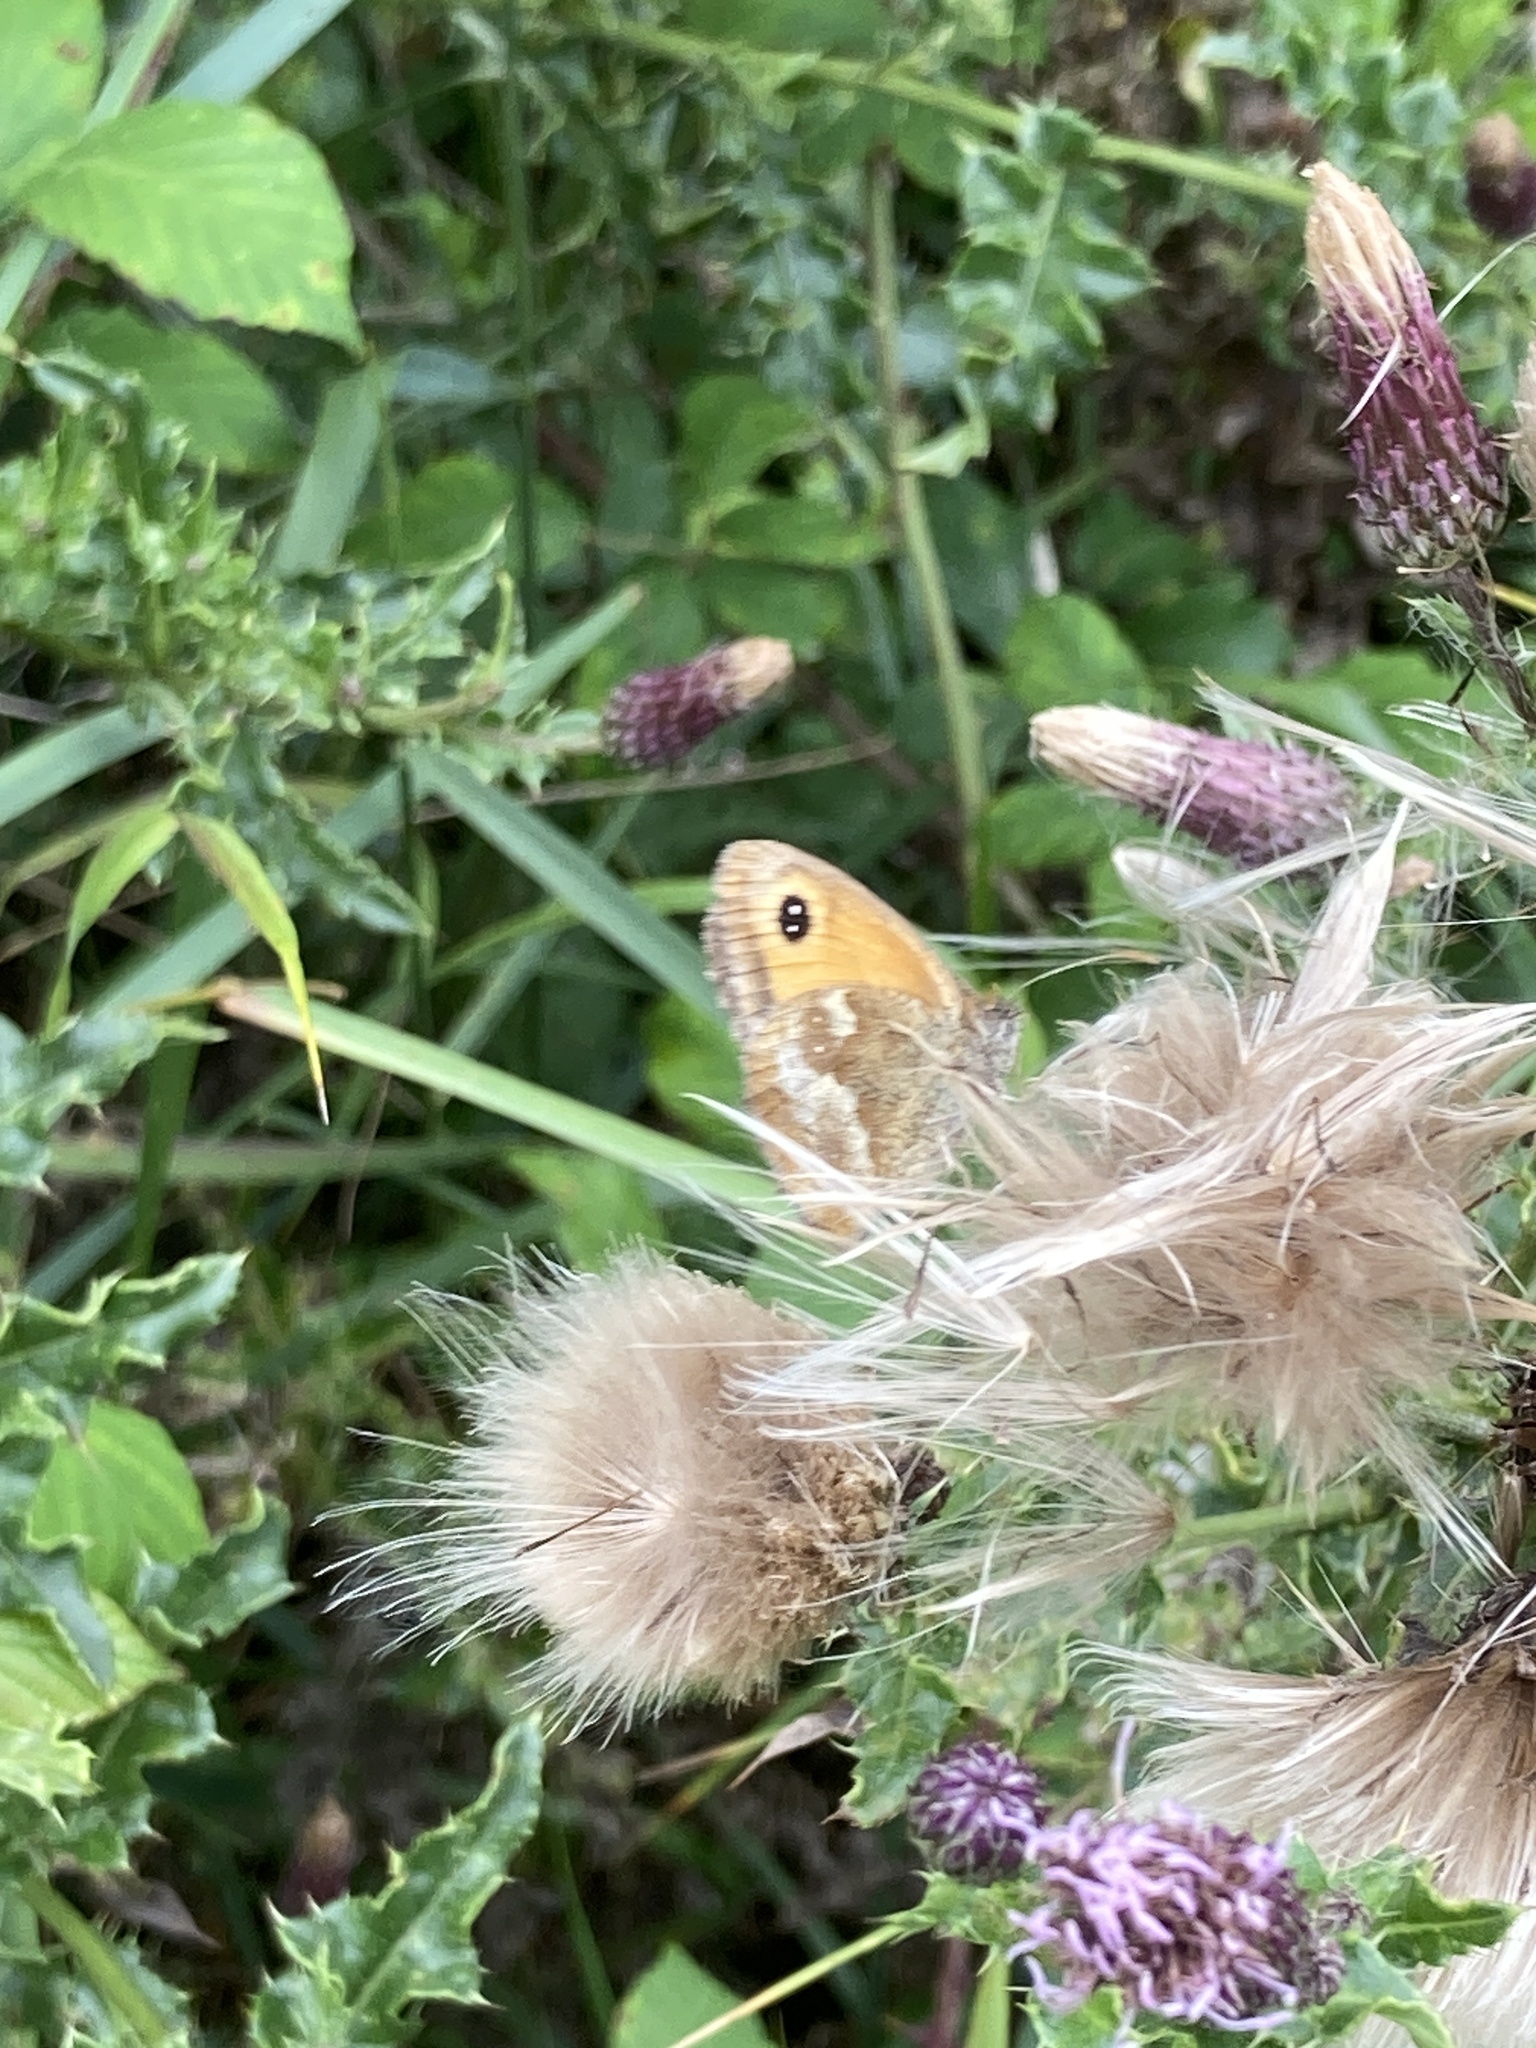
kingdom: Animalia
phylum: Arthropoda
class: Insecta
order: Lepidoptera
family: Nymphalidae
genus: Pyronia
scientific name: Pyronia tithonus
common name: Gatekeeper
